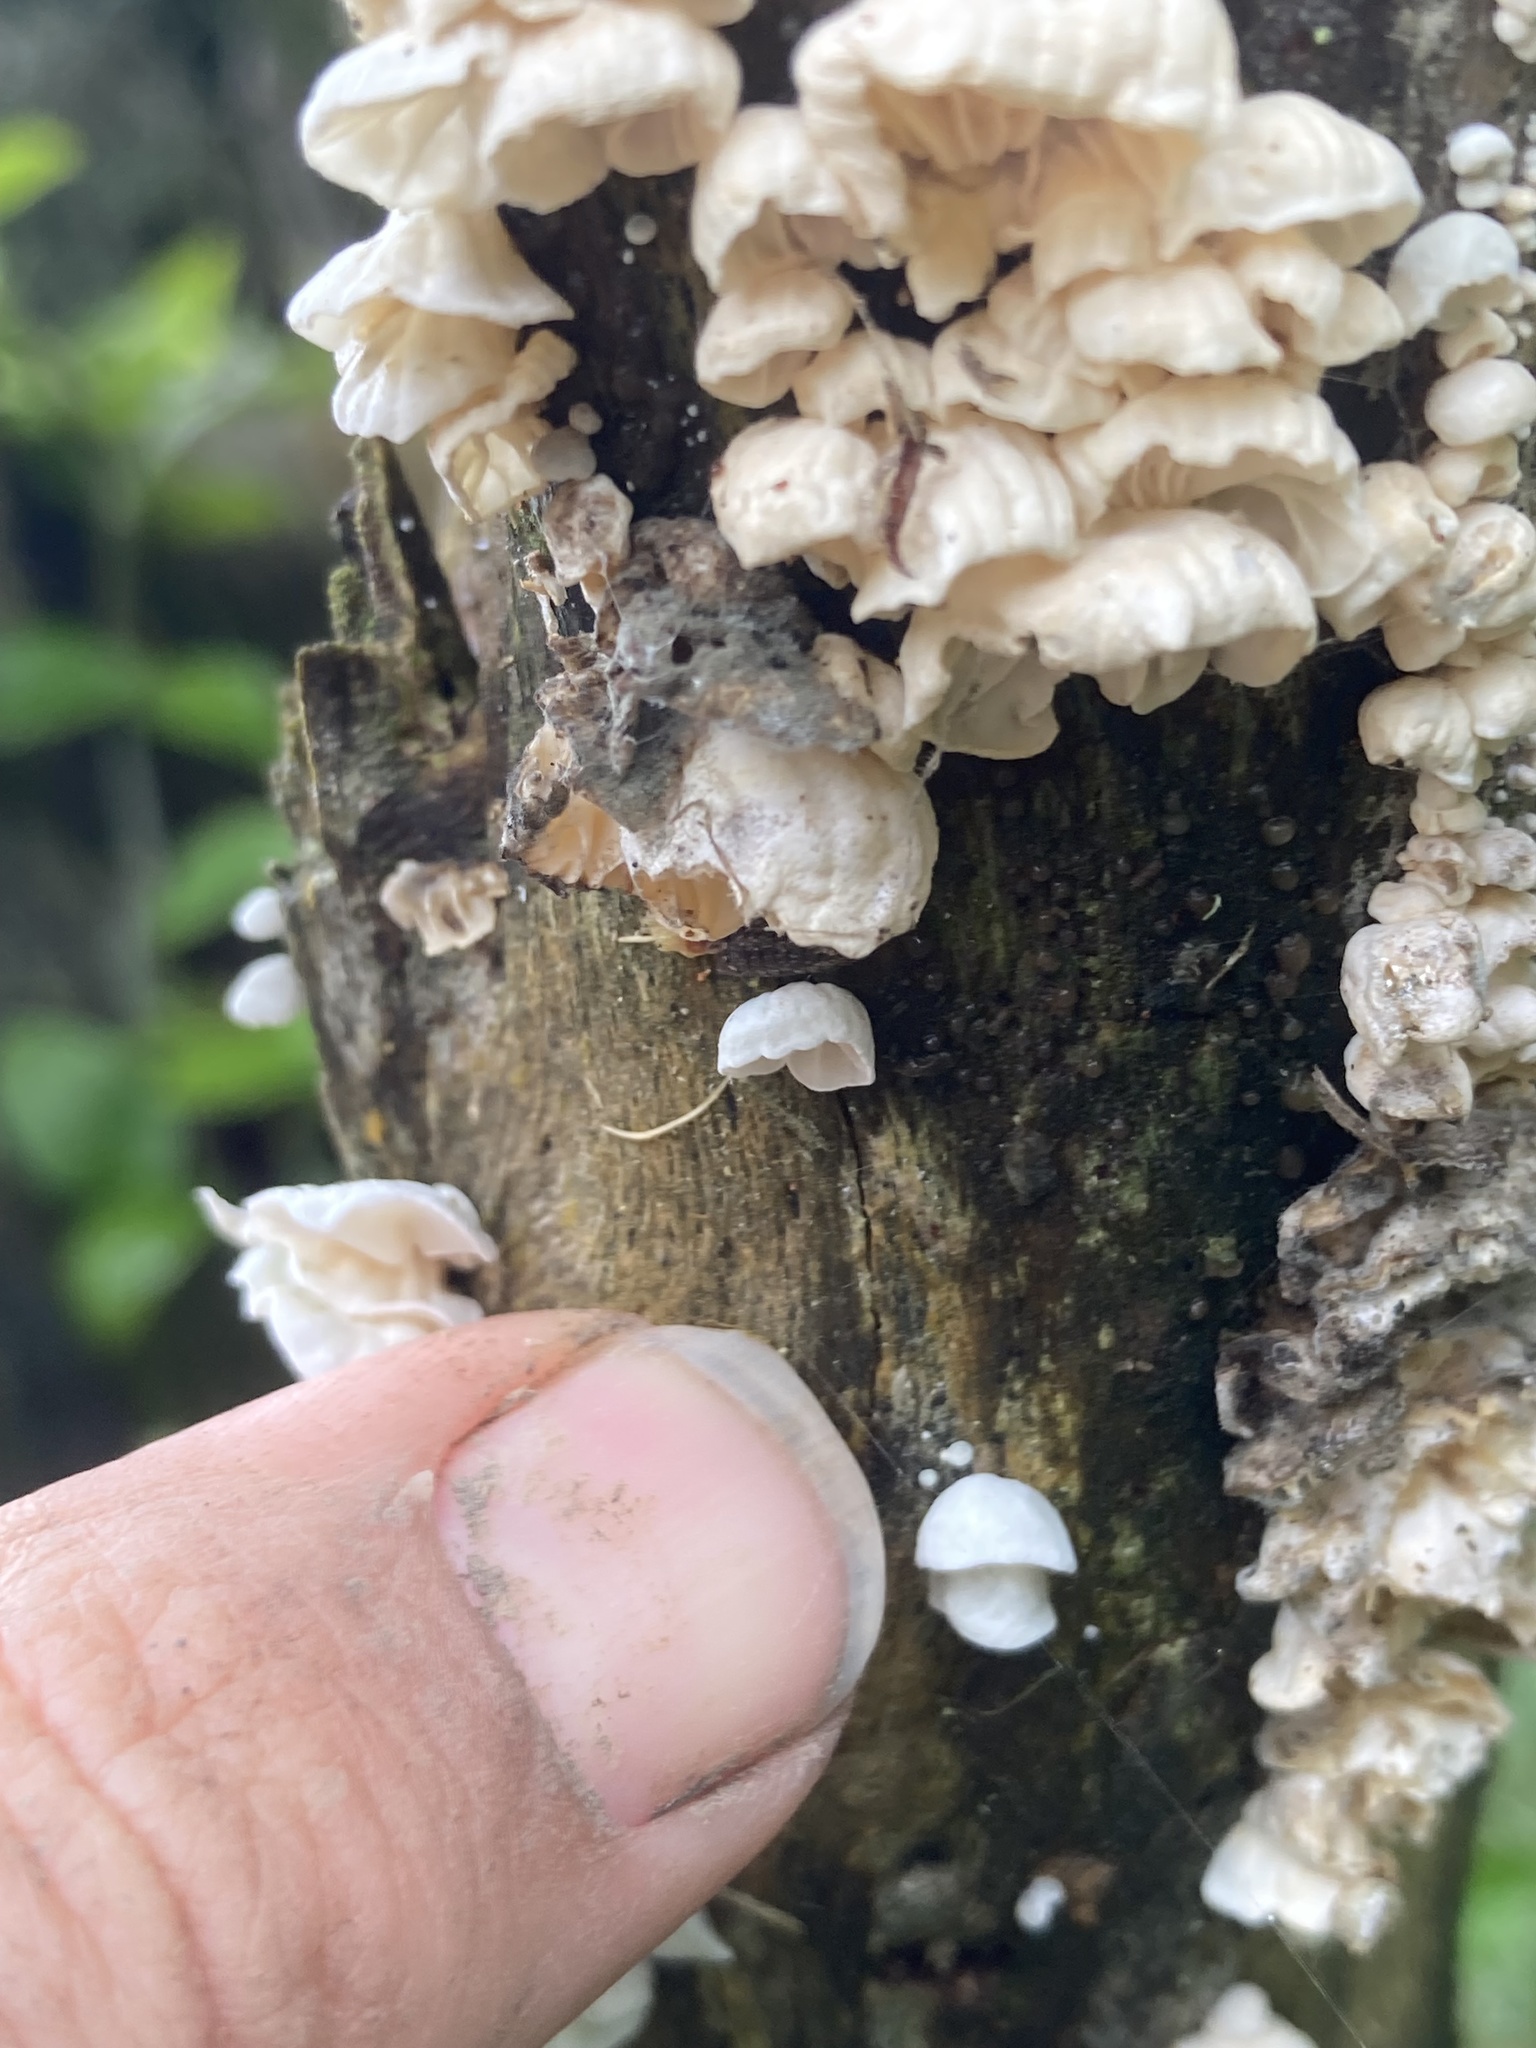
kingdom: Fungi
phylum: Basidiomycota
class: Agaricomycetes
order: Agaricales
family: Marasmiaceae
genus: Campanella
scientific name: Campanella tristis
